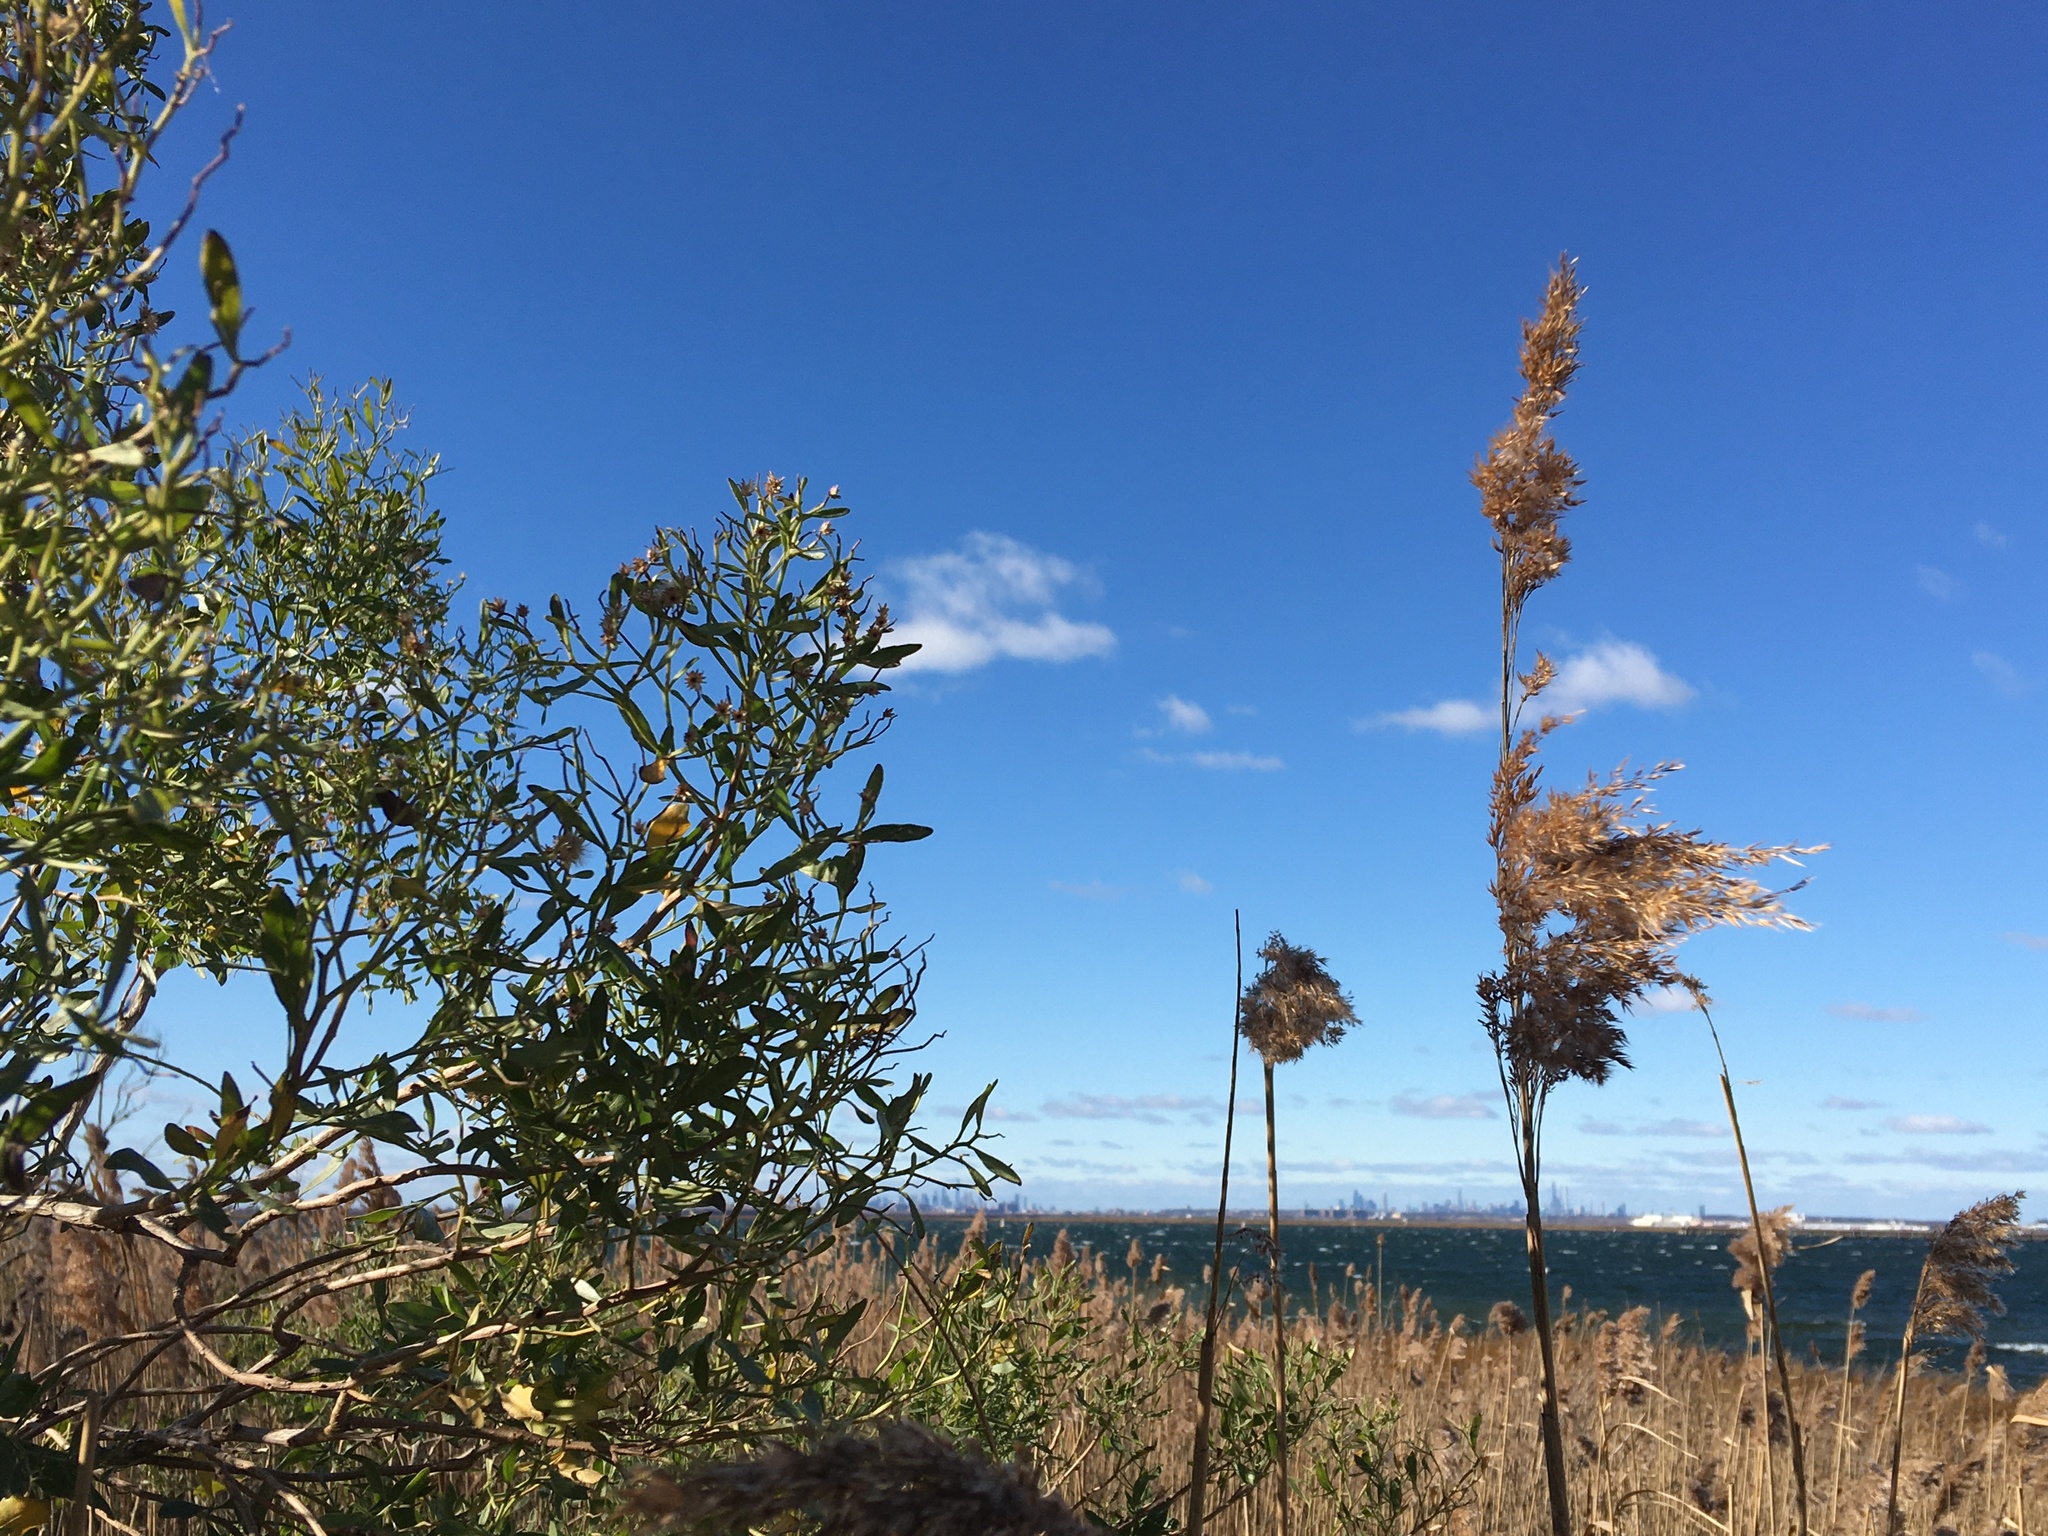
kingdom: Plantae
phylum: Tracheophyta
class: Magnoliopsida
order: Asterales
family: Asteraceae
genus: Baccharis
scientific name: Baccharis halimifolia
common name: Eastern baccharis
